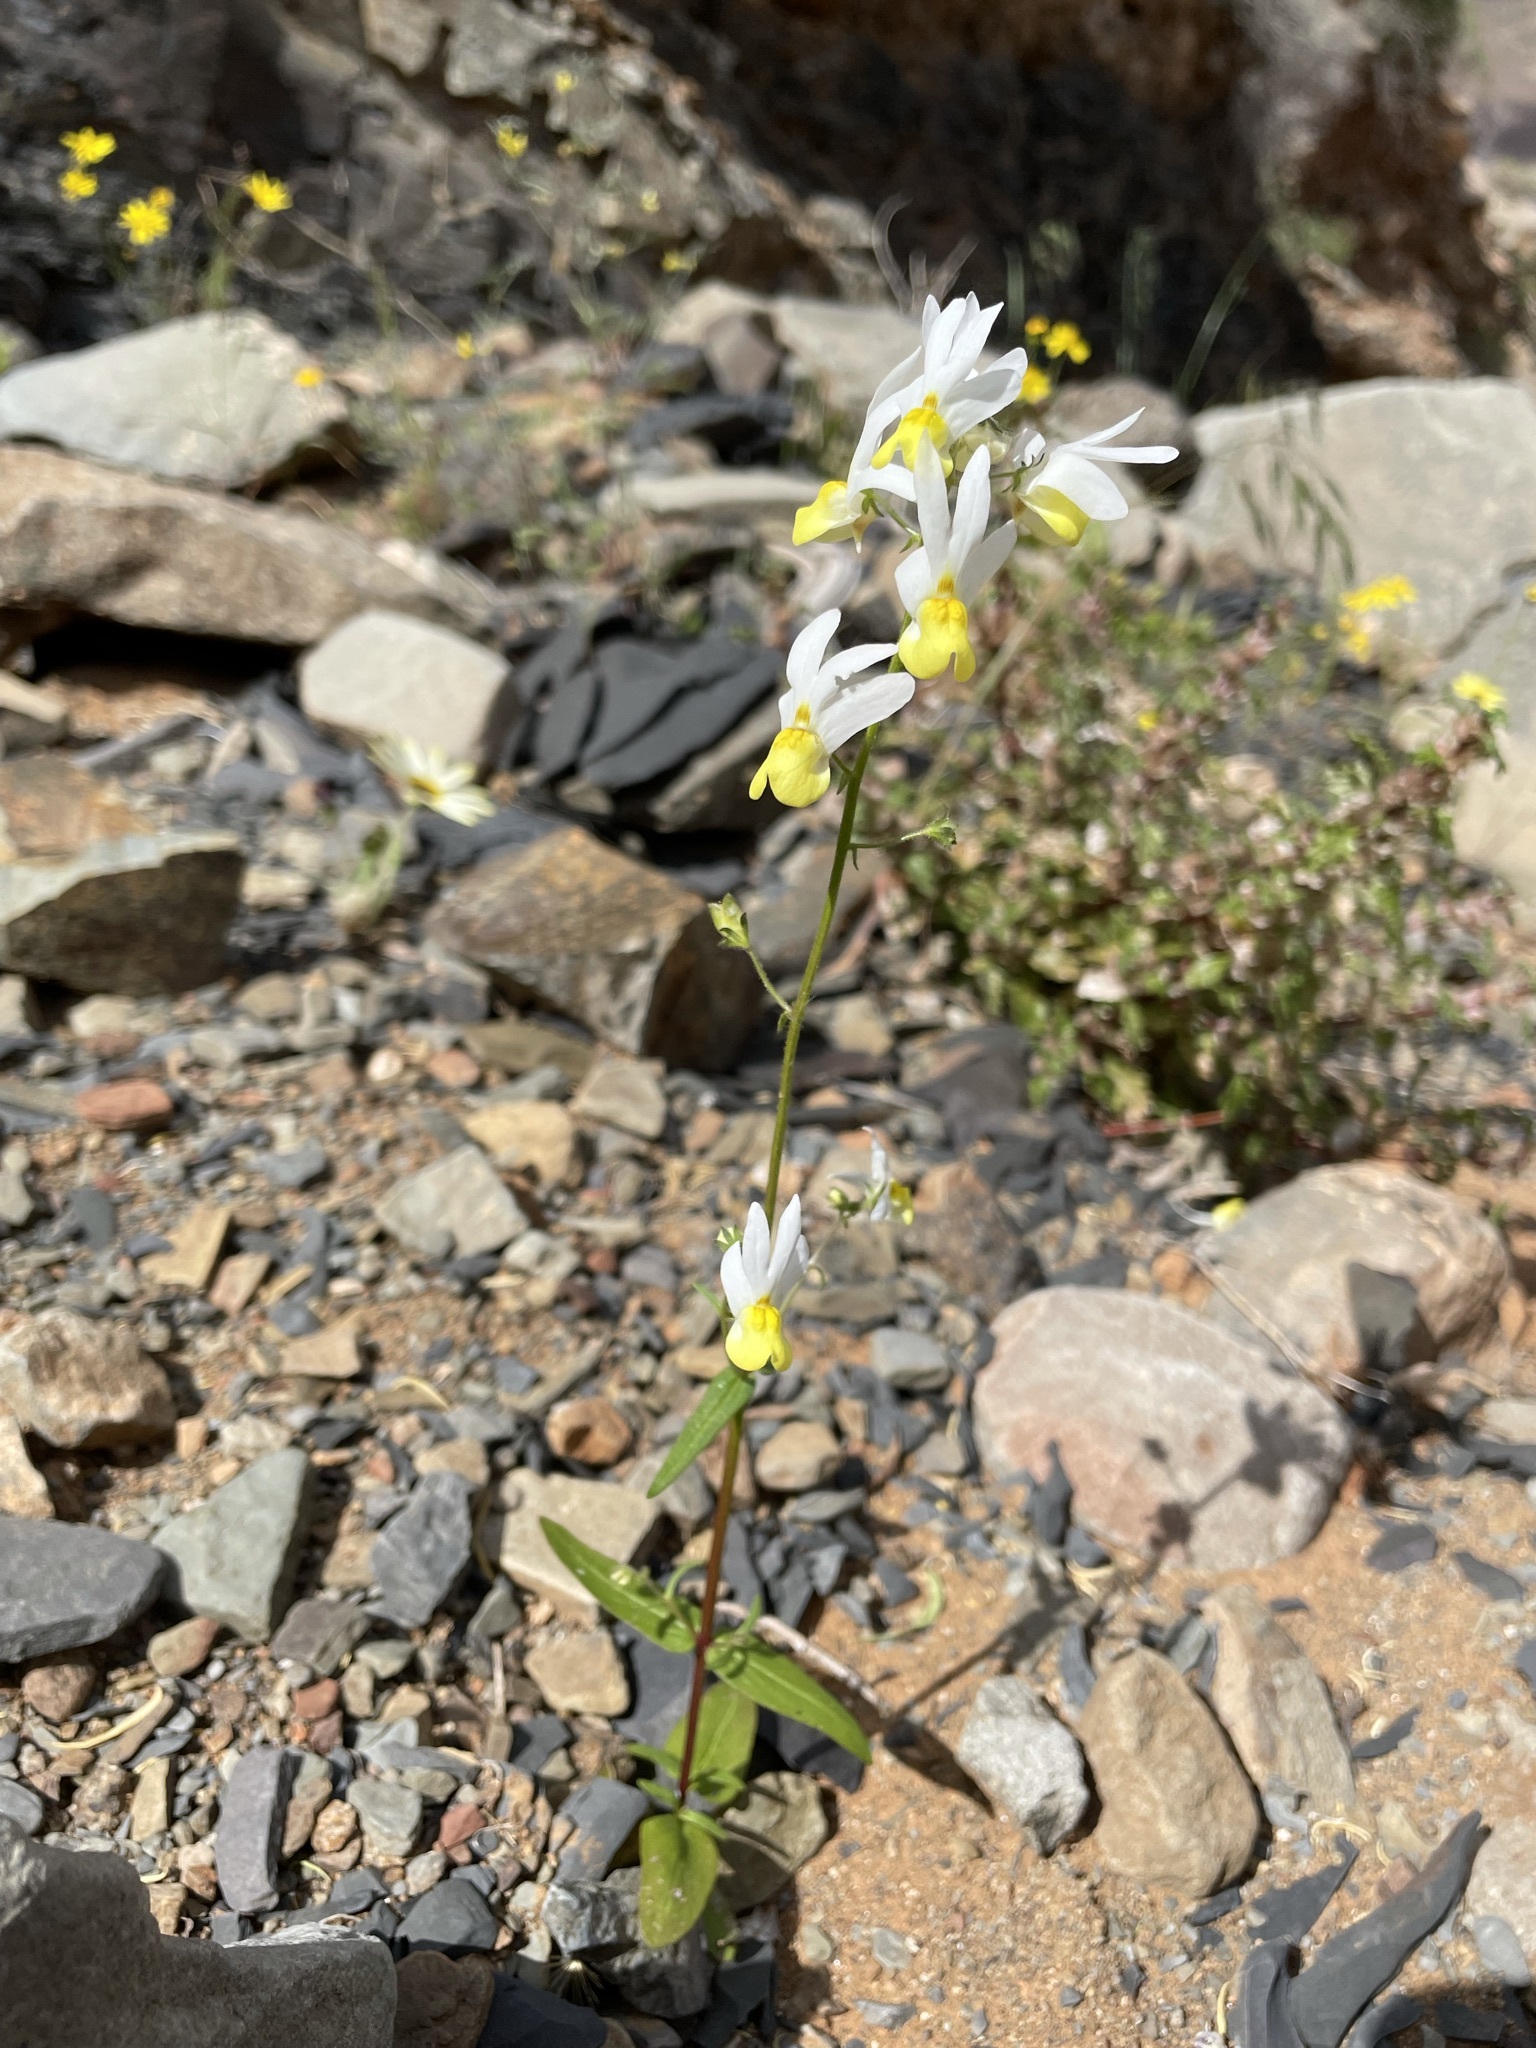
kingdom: Plantae
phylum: Tracheophyta
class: Magnoliopsida
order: Lamiales
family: Scrophulariaceae
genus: Nemesia
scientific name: Nemesia anisocarpa
